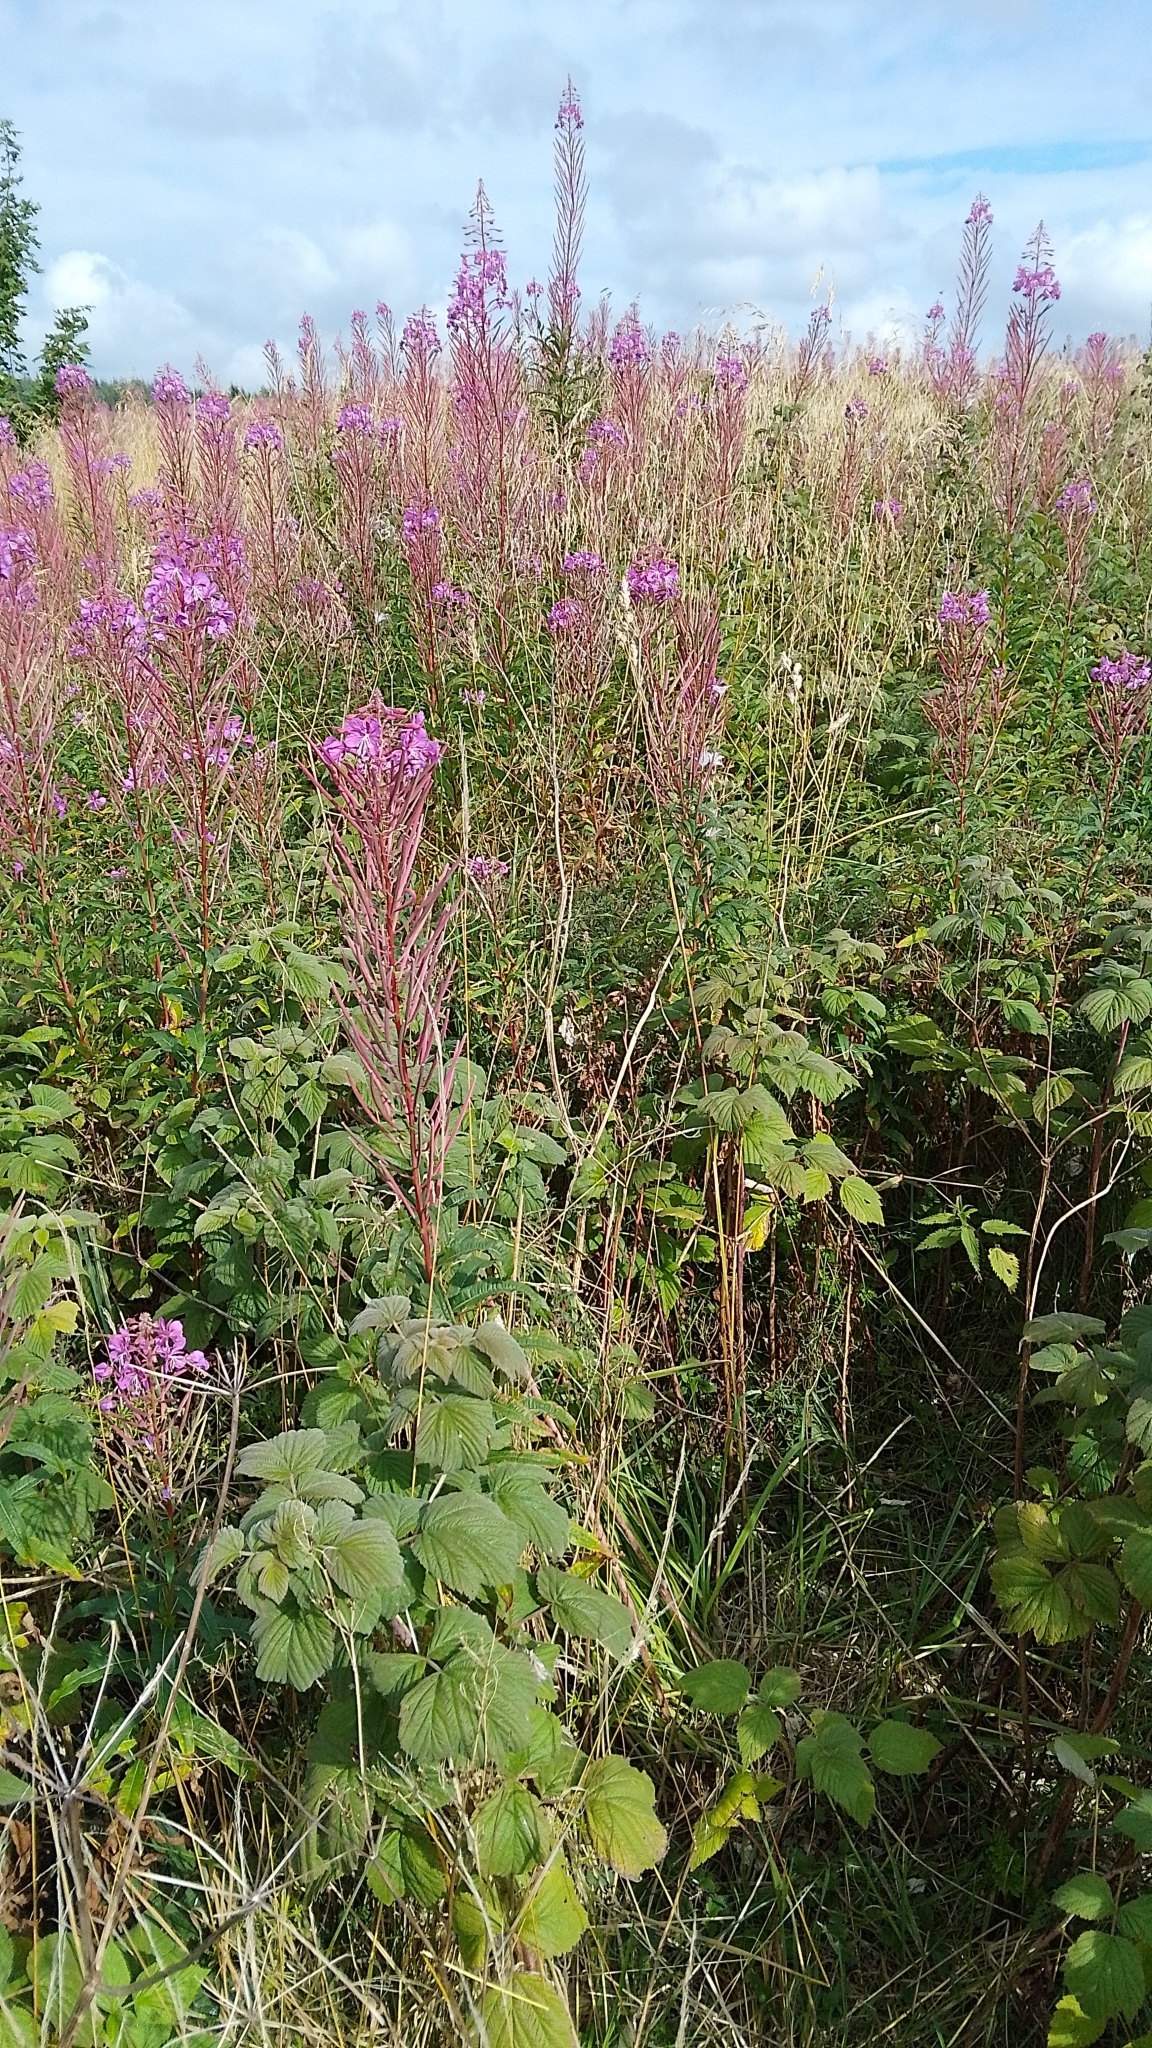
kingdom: Plantae
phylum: Tracheophyta
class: Magnoliopsida
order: Myrtales
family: Onagraceae
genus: Chamaenerion
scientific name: Chamaenerion angustifolium
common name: Fireweed
